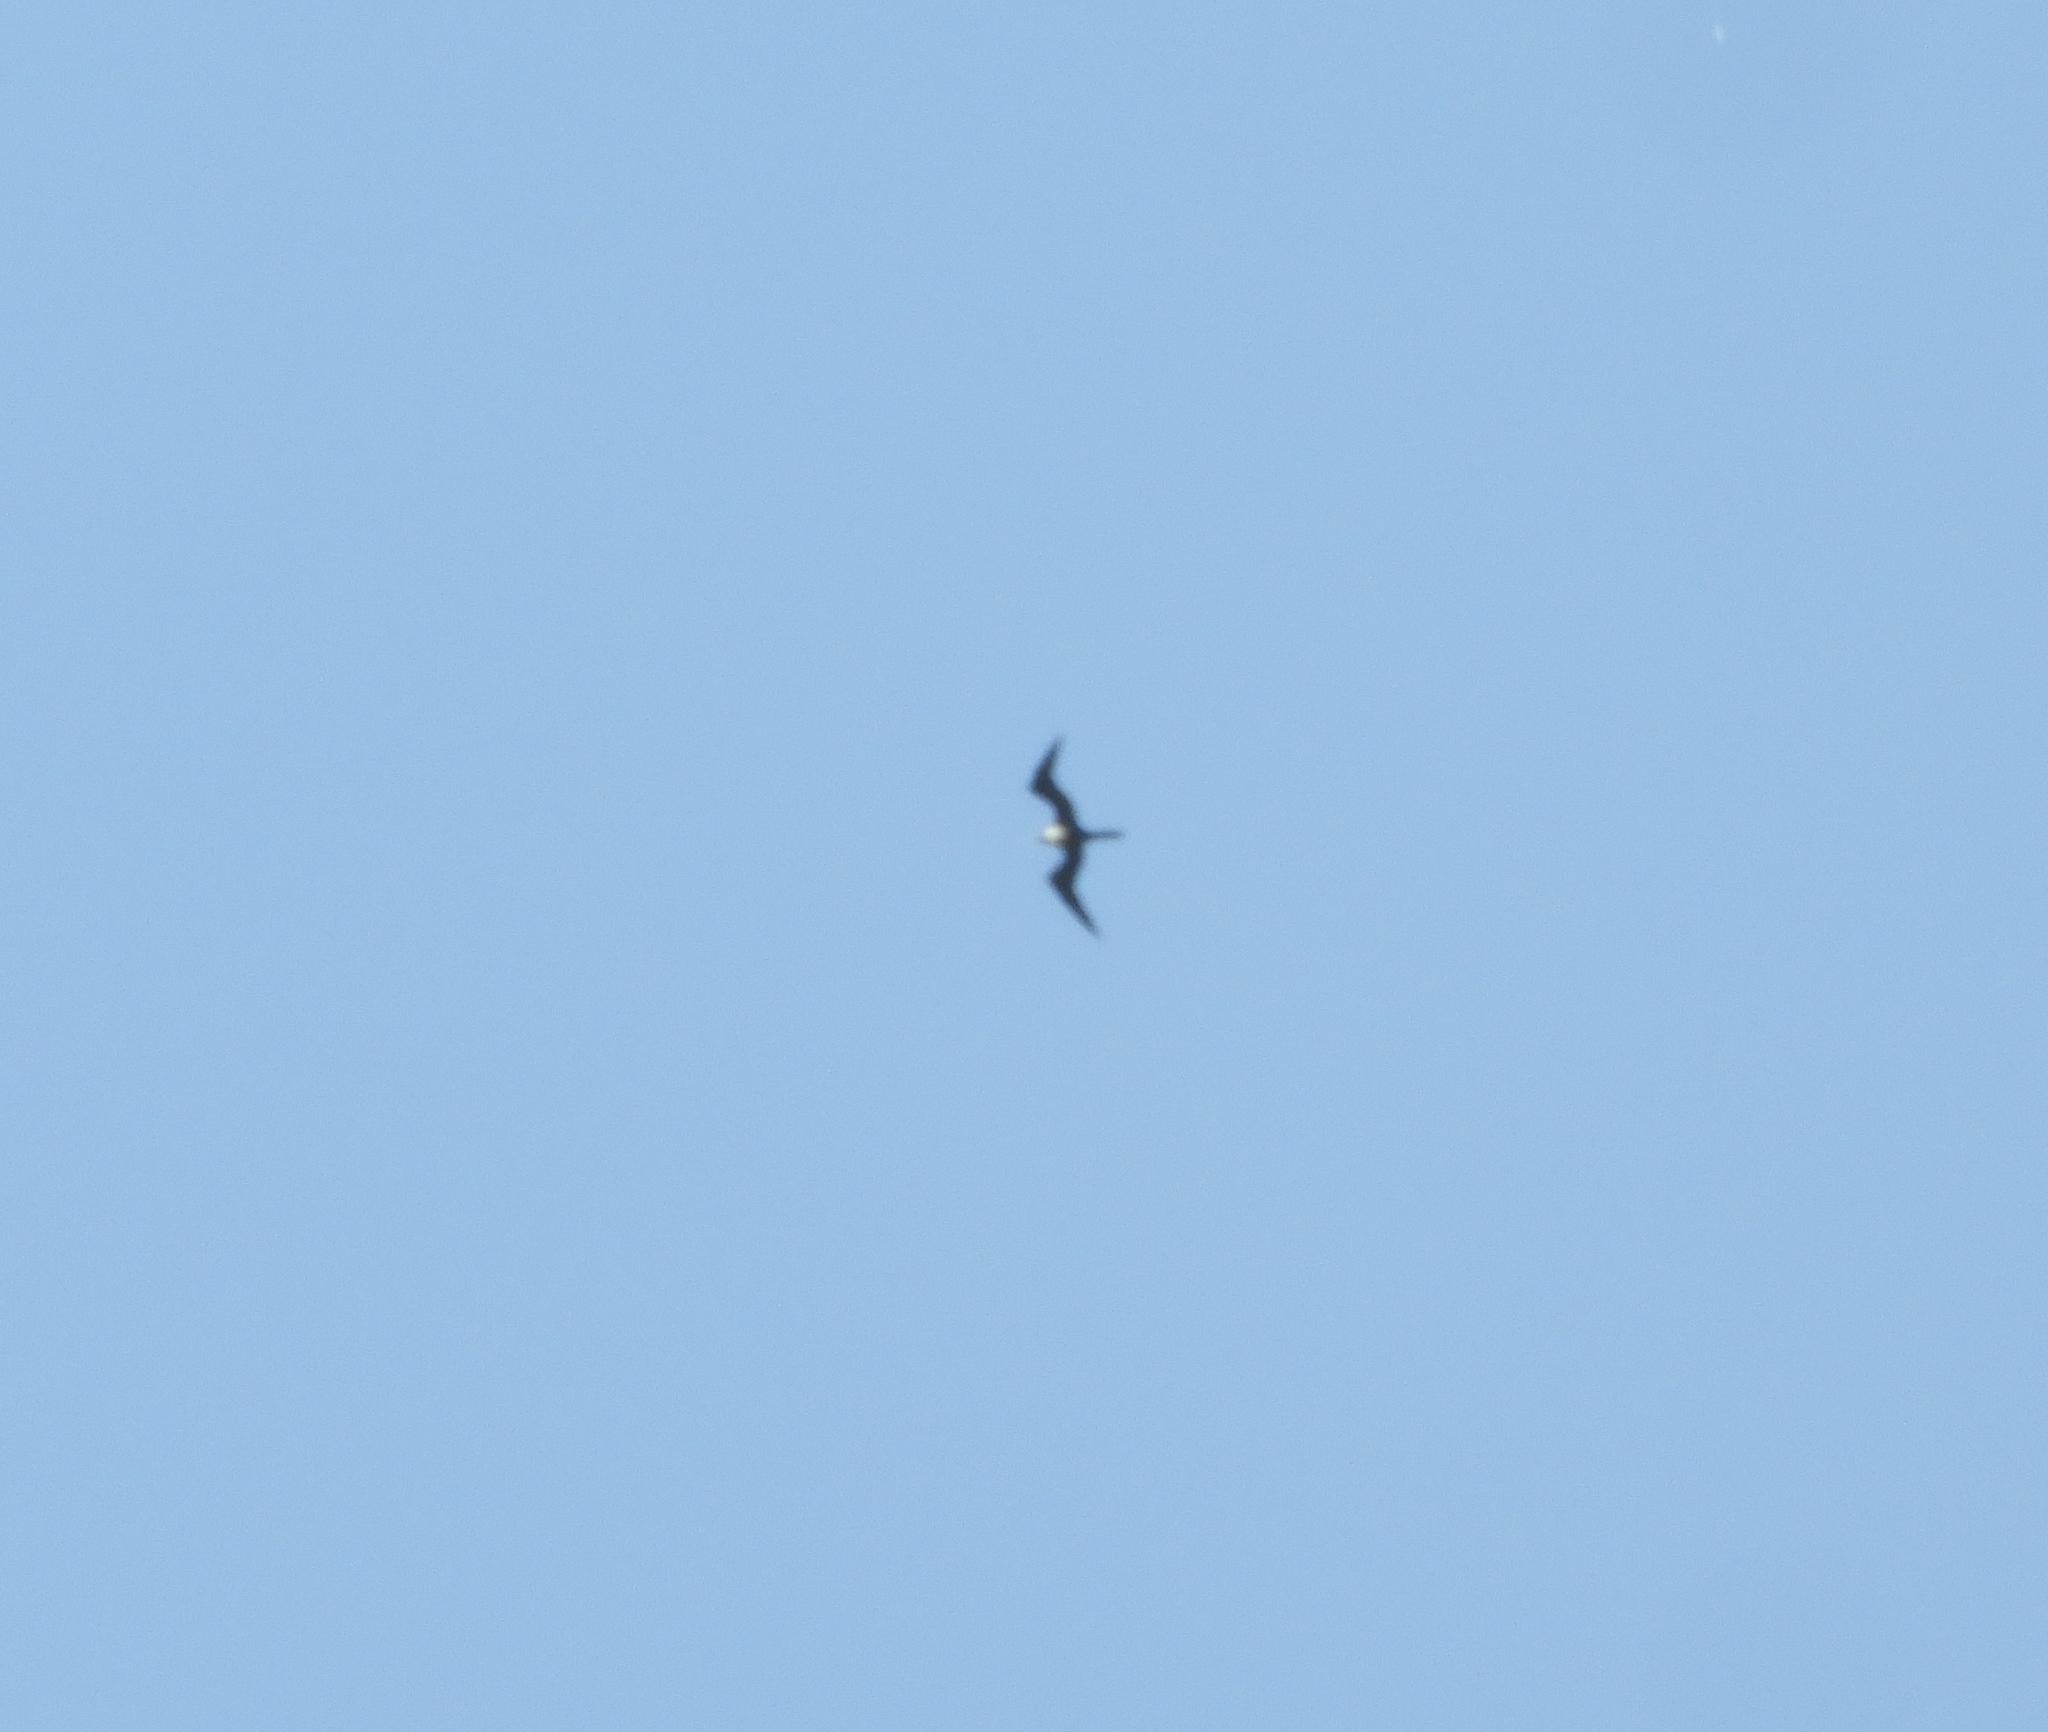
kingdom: Animalia
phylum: Chordata
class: Aves
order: Suliformes
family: Fregatidae
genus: Fregata
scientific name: Fregata magnificens
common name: Magnificent frigatebird
